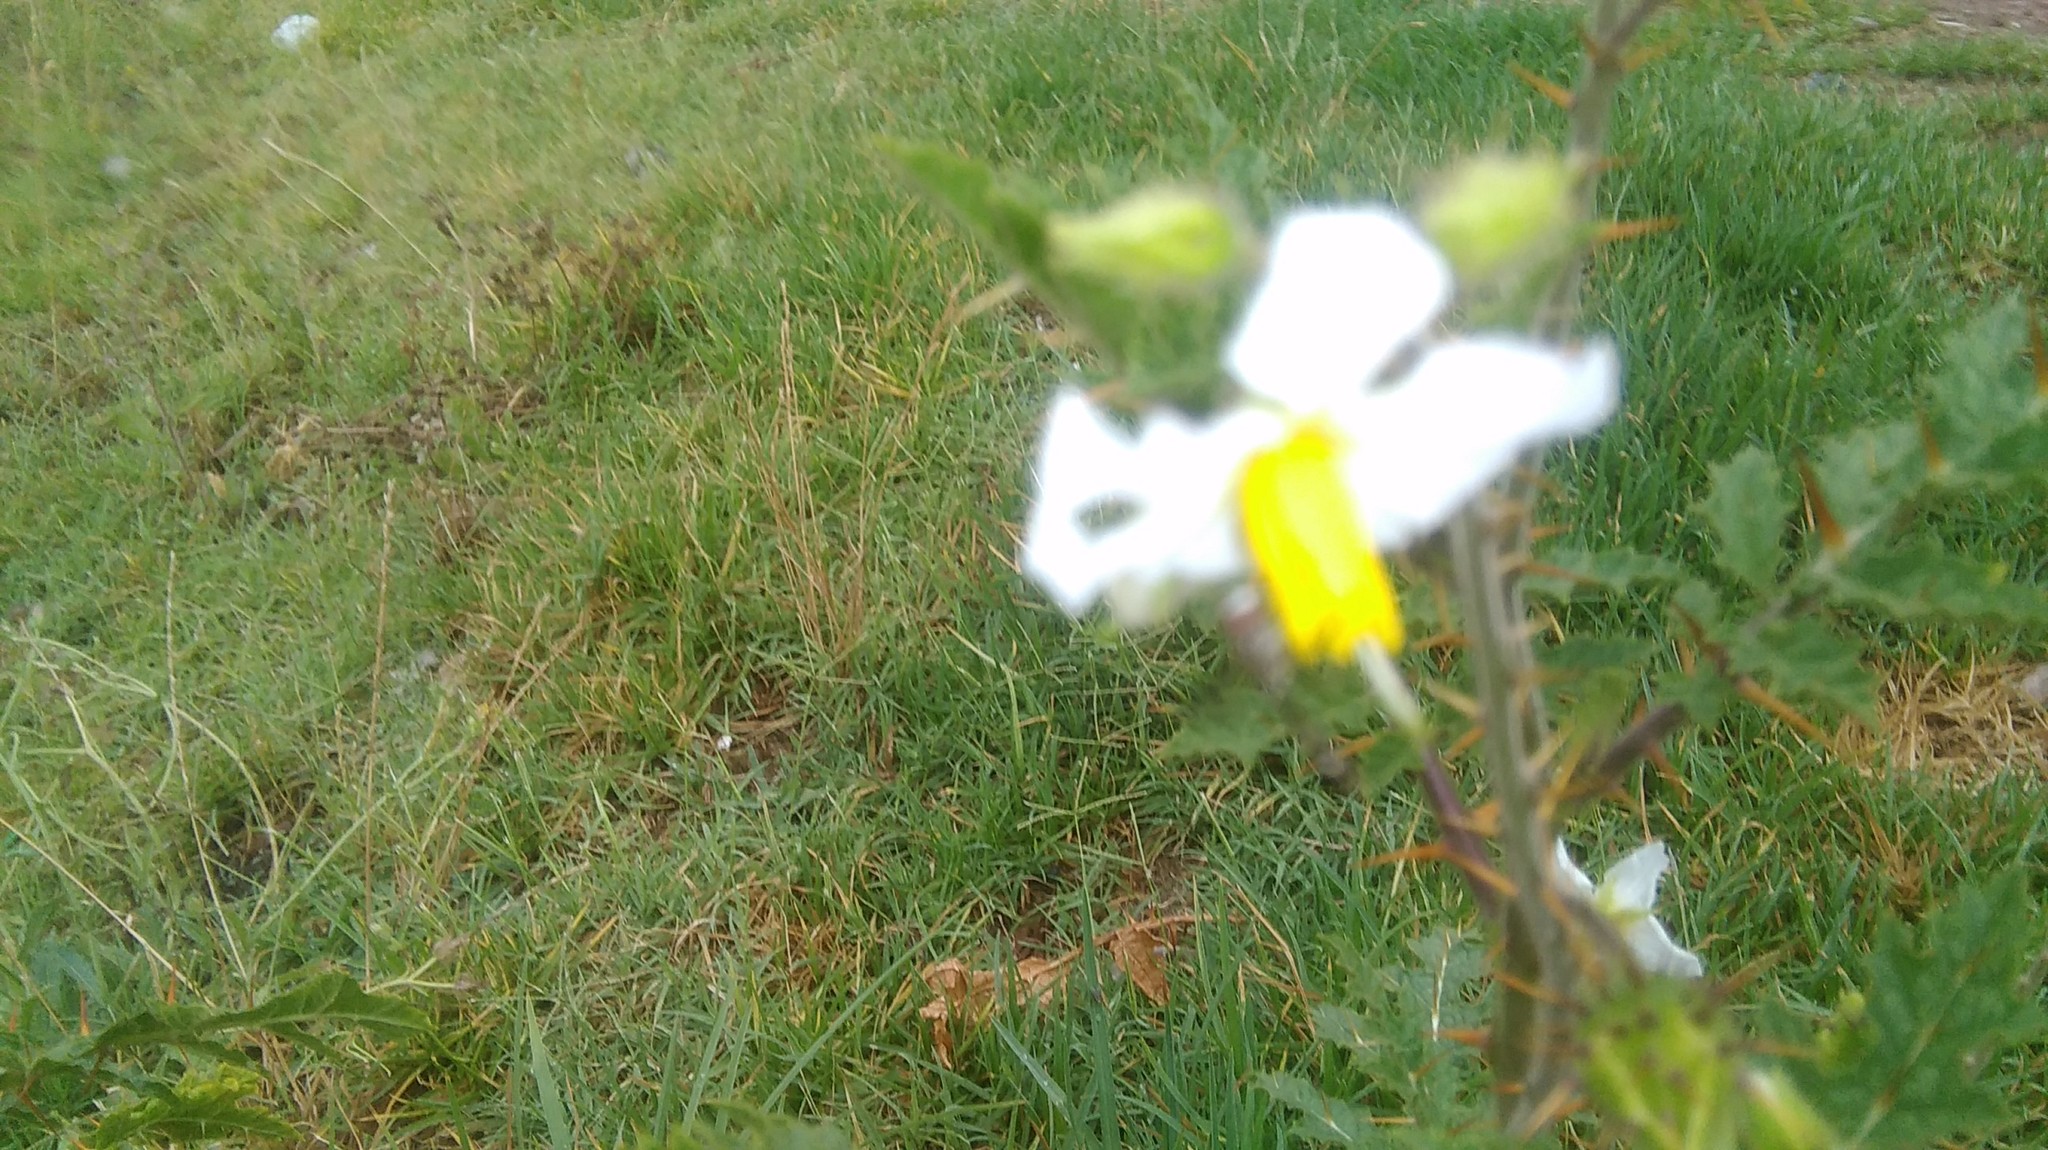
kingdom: Plantae
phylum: Tracheophyta
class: Magnoliopsida
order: Solanales
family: Solanaceae
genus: Solanum
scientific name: Solanum sisymbriifolium
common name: Red buffalo-bur
